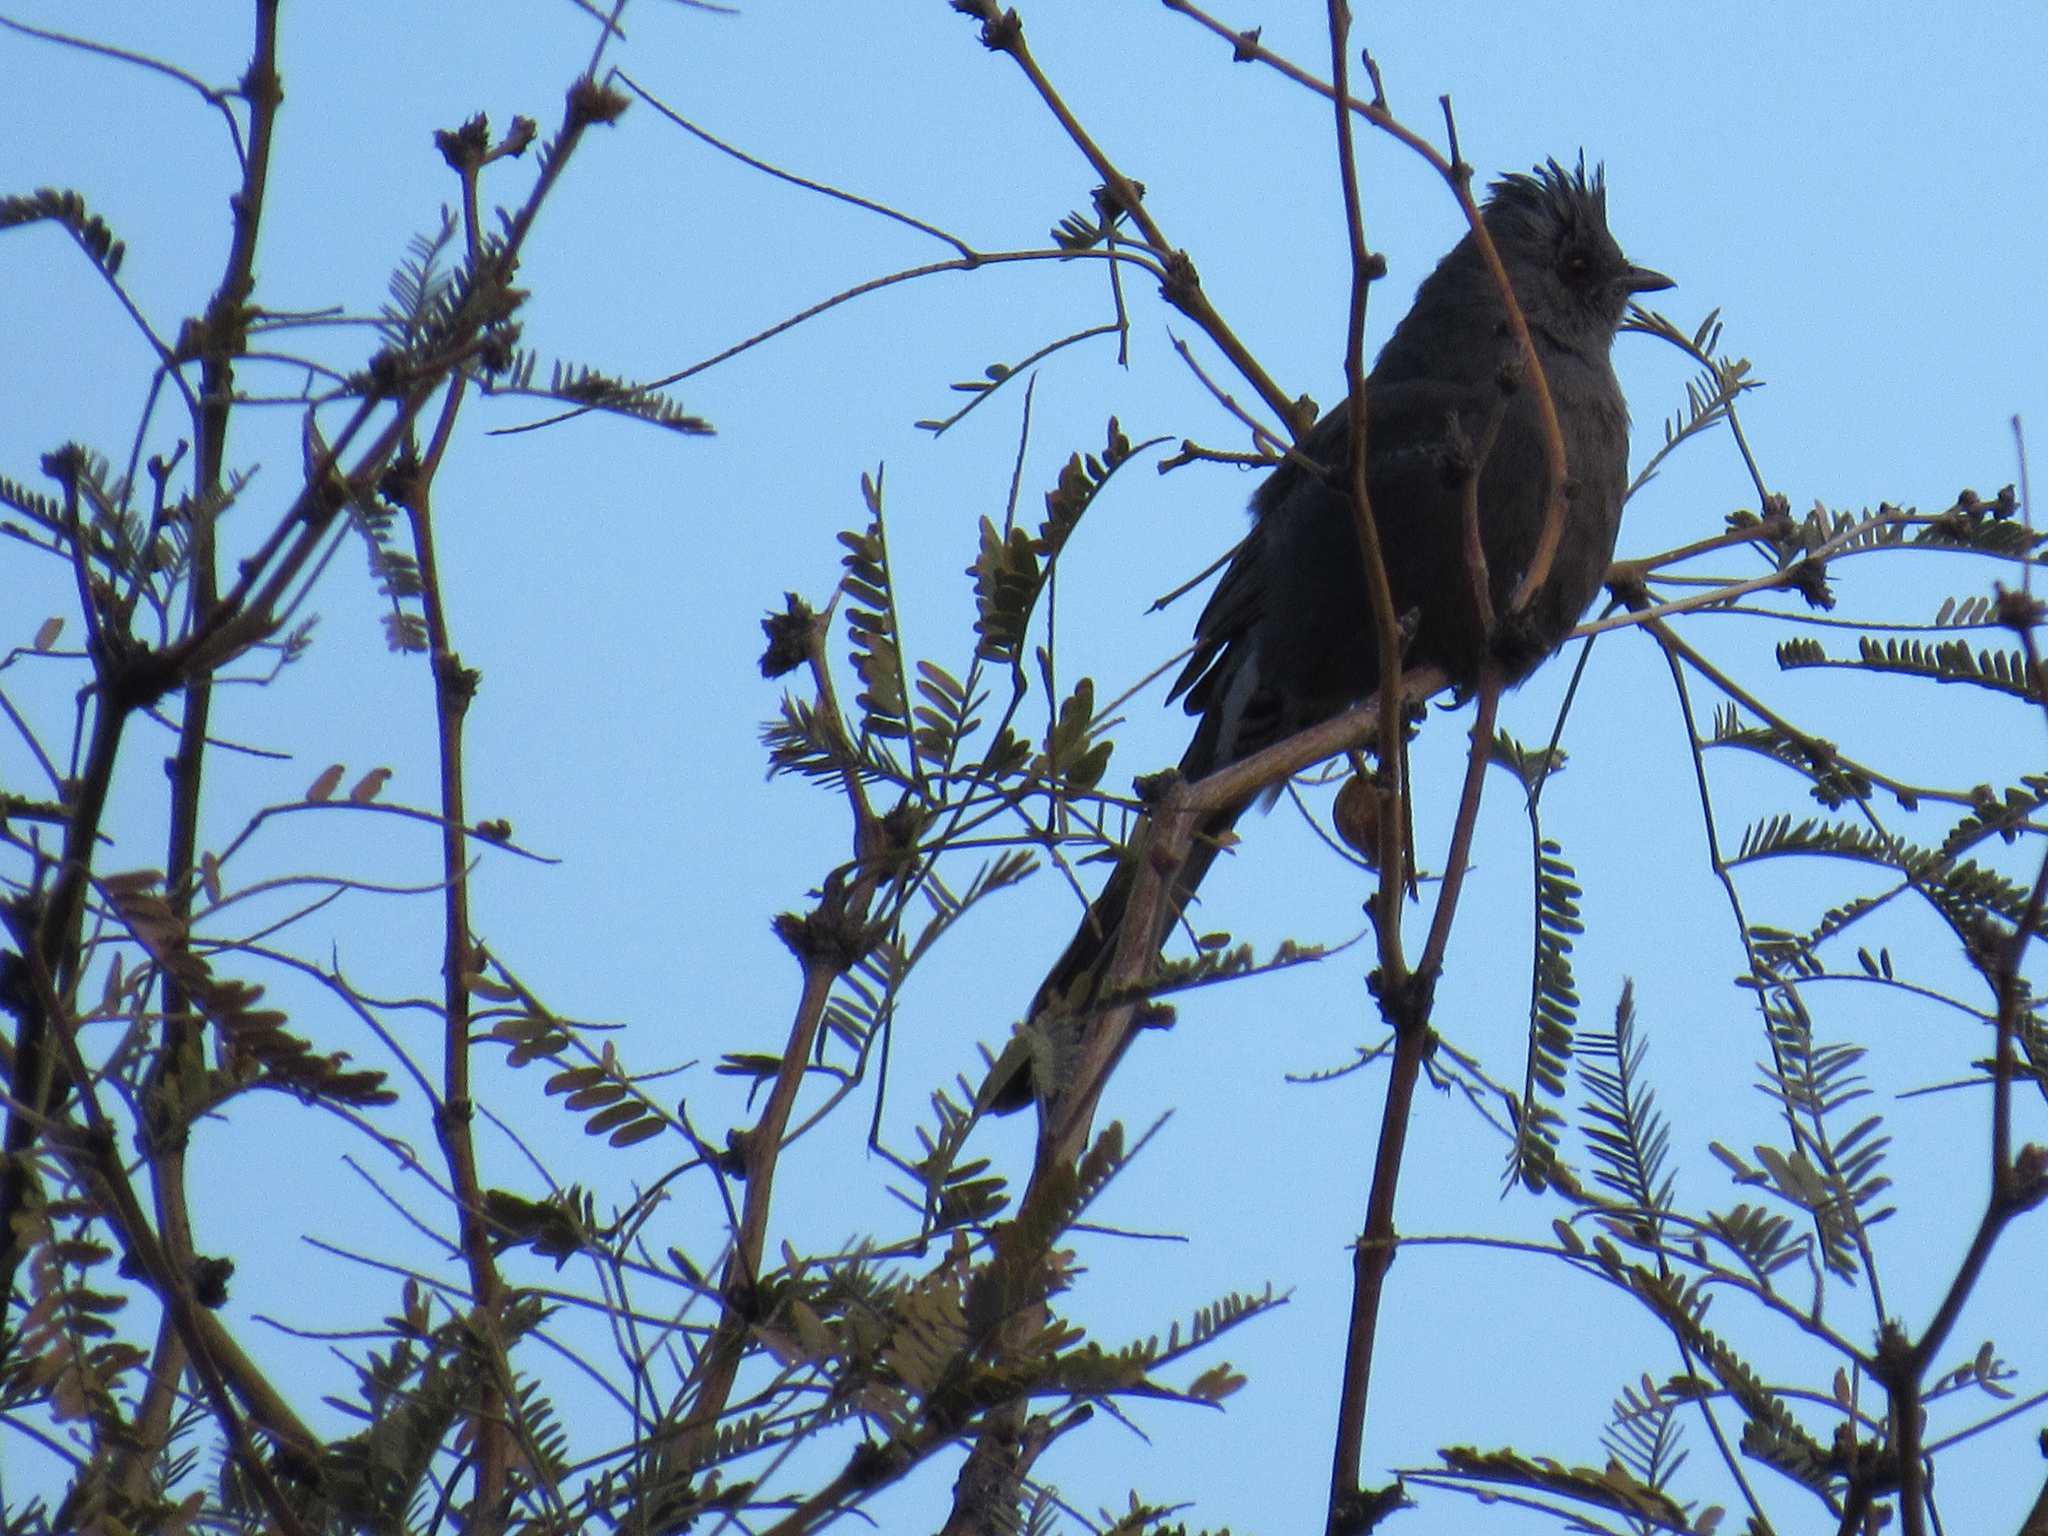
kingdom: Animalia
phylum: Chordata
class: Aves
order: Passeriformes
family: Ptilogonatidae
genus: Phainopepla
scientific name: Phainopepla nitens
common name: Phainopepla
